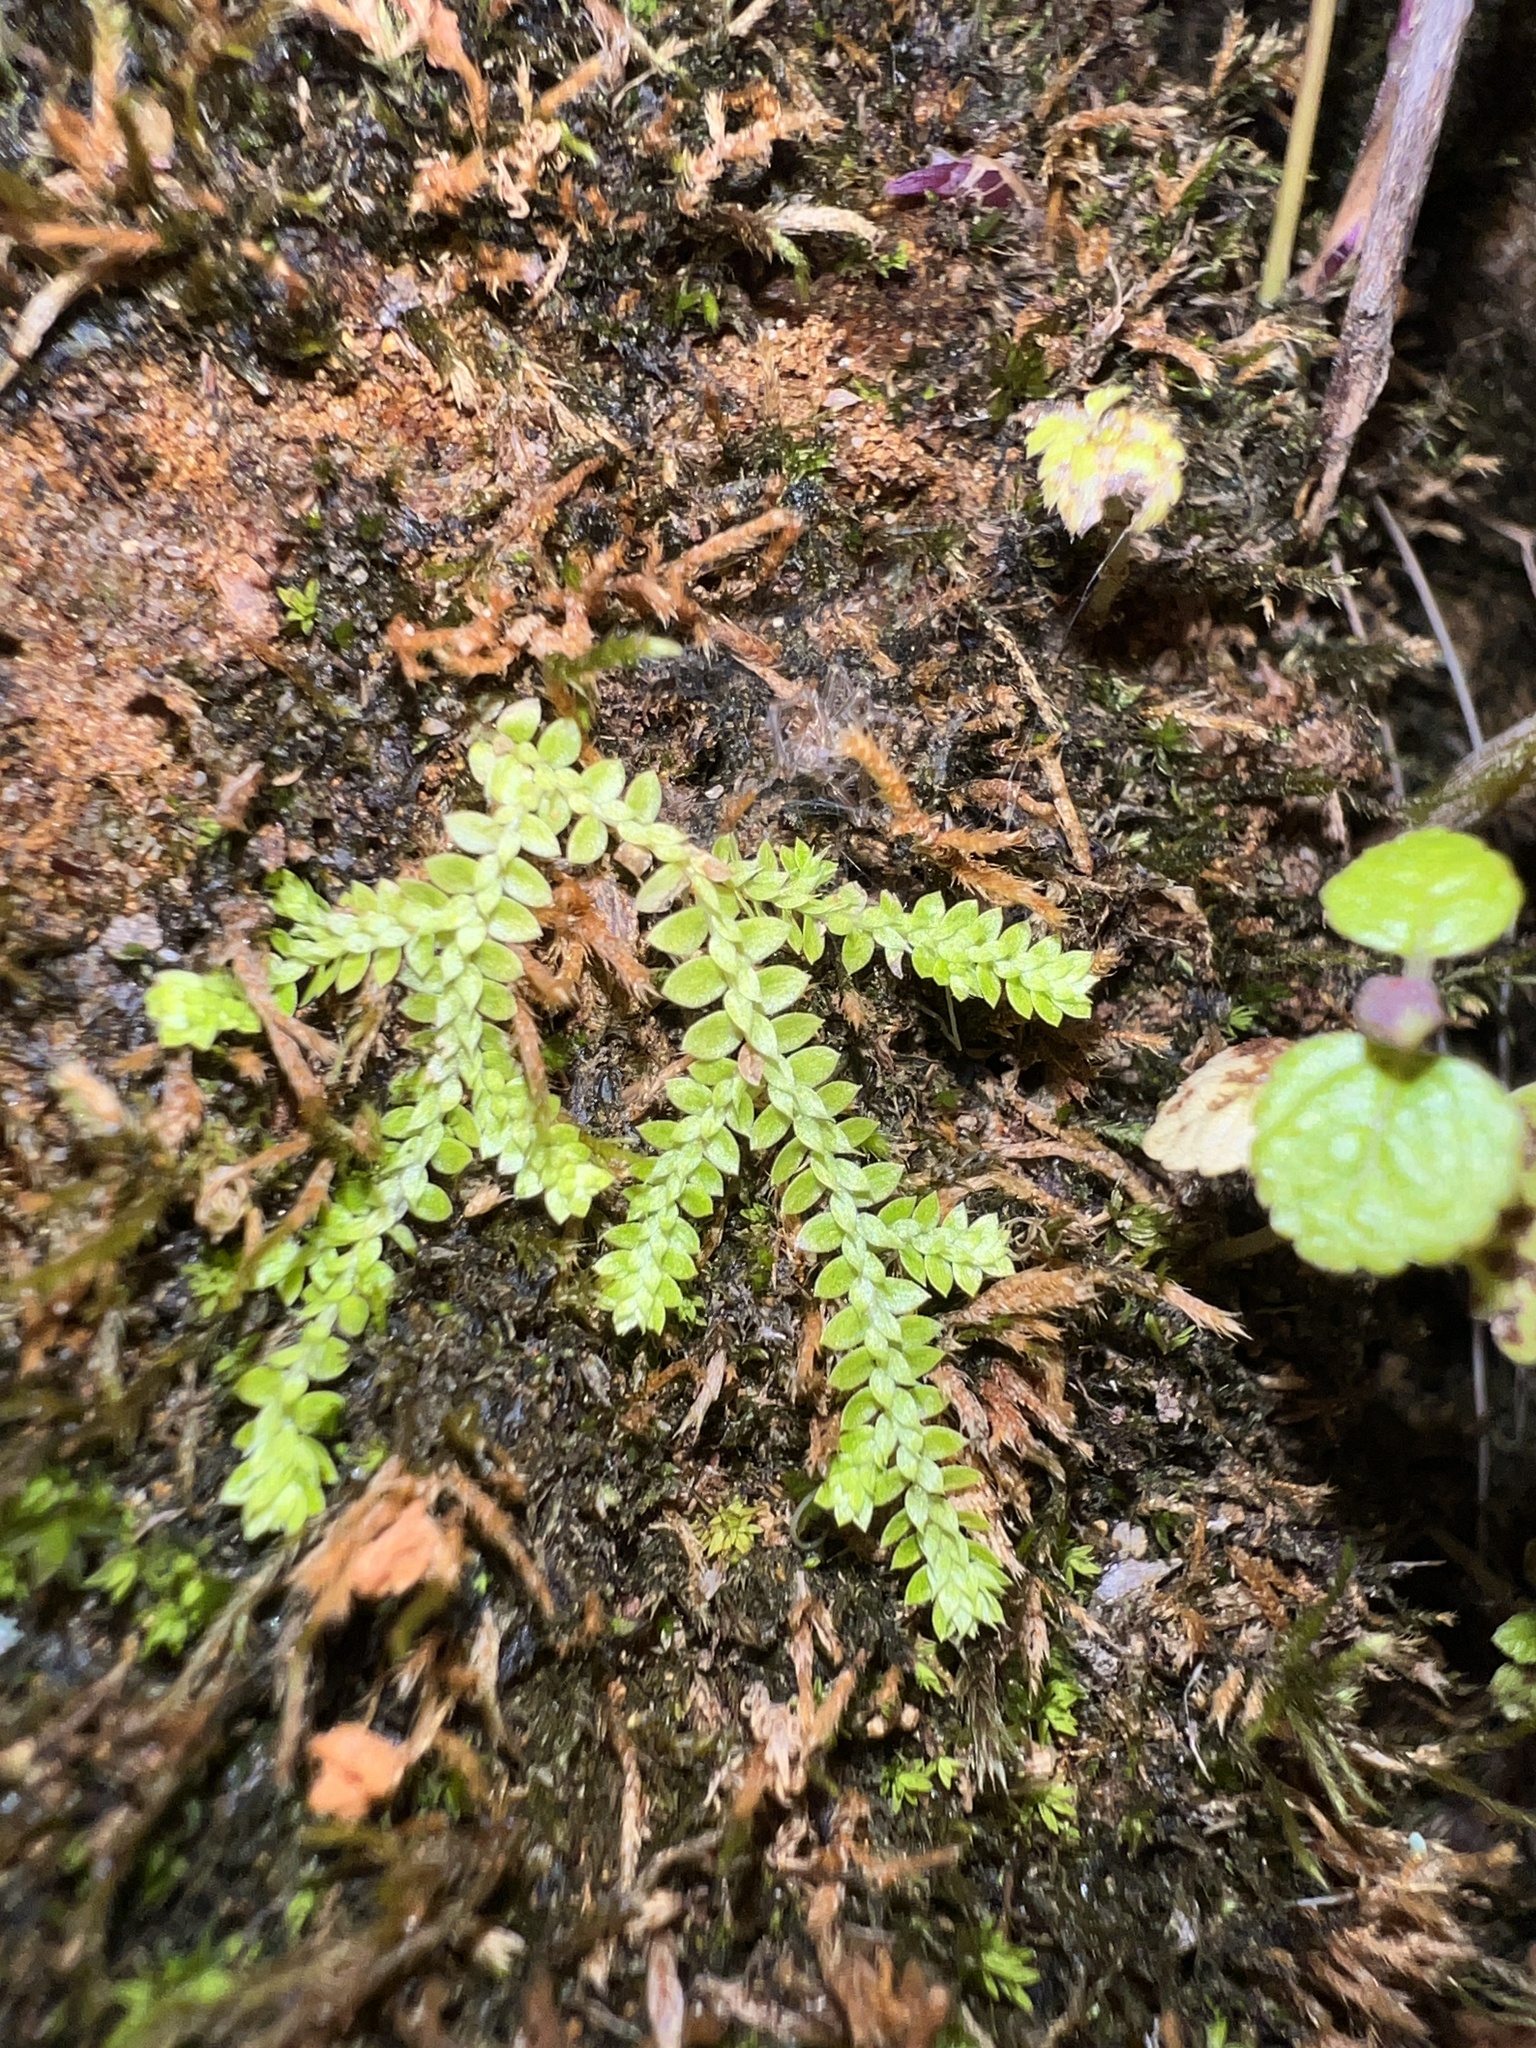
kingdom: Plantae
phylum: Tracheophyta
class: Lycopodiopsida
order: Selaginellales
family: Selaginellaceae
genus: Selaginella
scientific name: Selaginella eclipes
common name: Buck's meadow spikemoss
